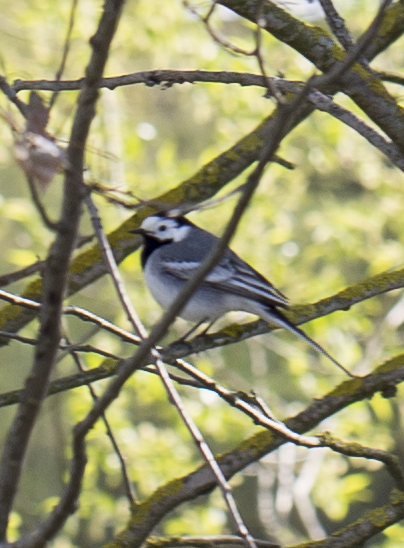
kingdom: Animalia
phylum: Chordata
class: Aves
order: Passeriformes
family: Motacillidae
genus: Motacilla
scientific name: Motacilla alba
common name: White wagtail
